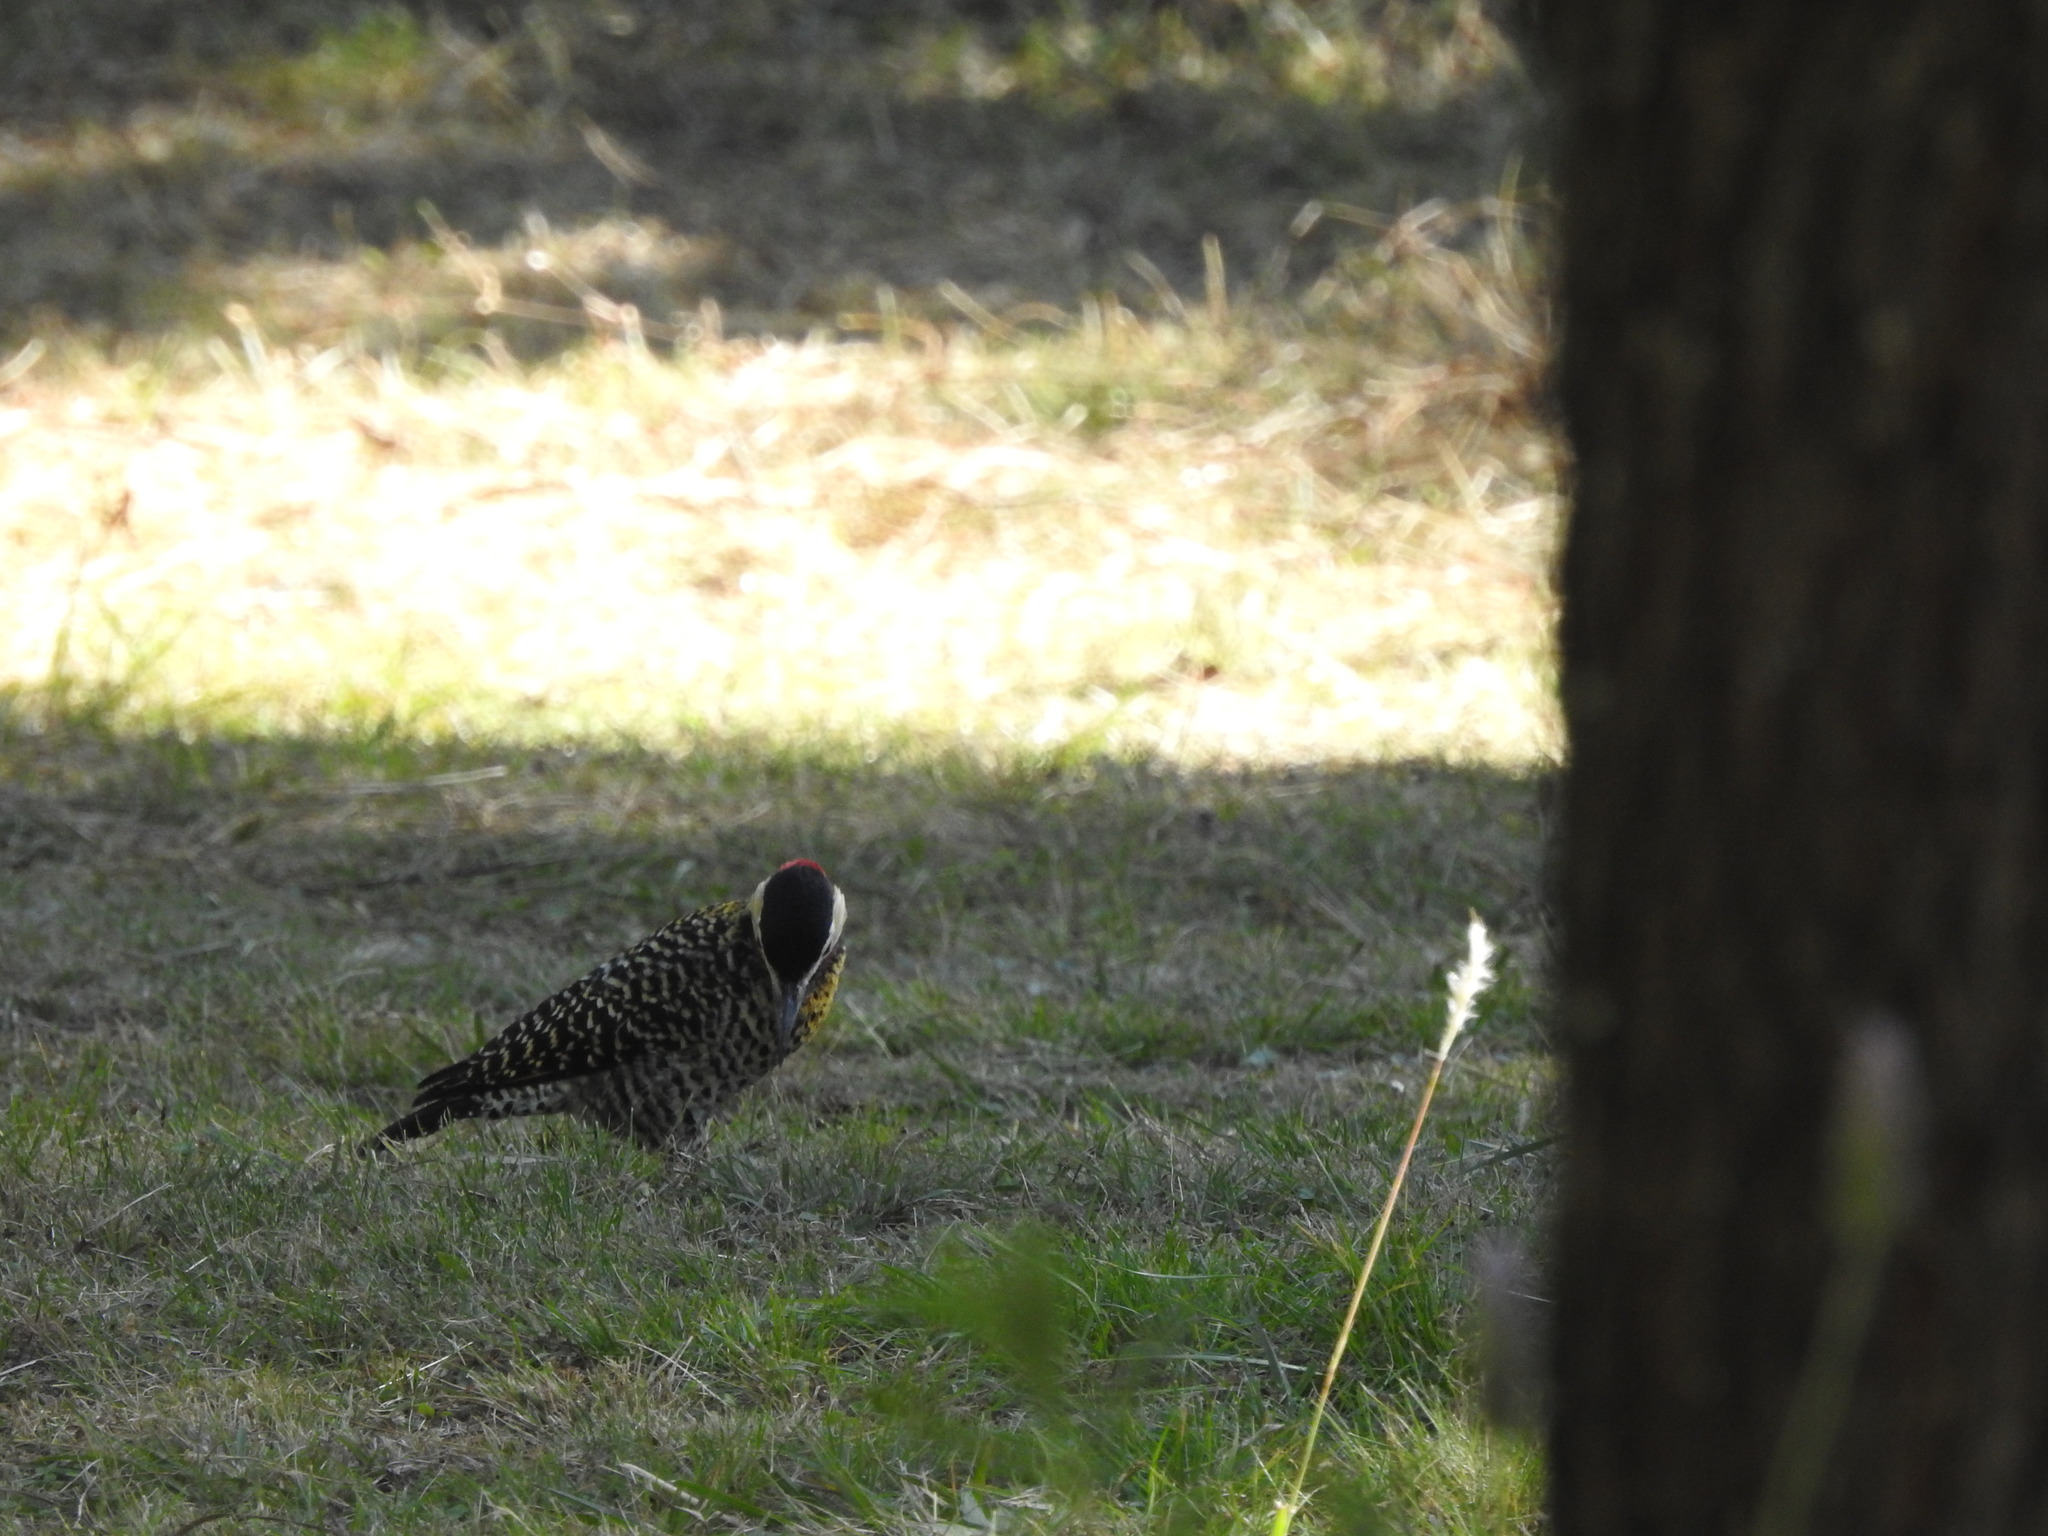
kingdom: Animalia
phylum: Chordata
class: Aves
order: Piciformes
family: Picidae
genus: Colaptes
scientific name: Colaptes melanochloros
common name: Green-barred woodpecker
